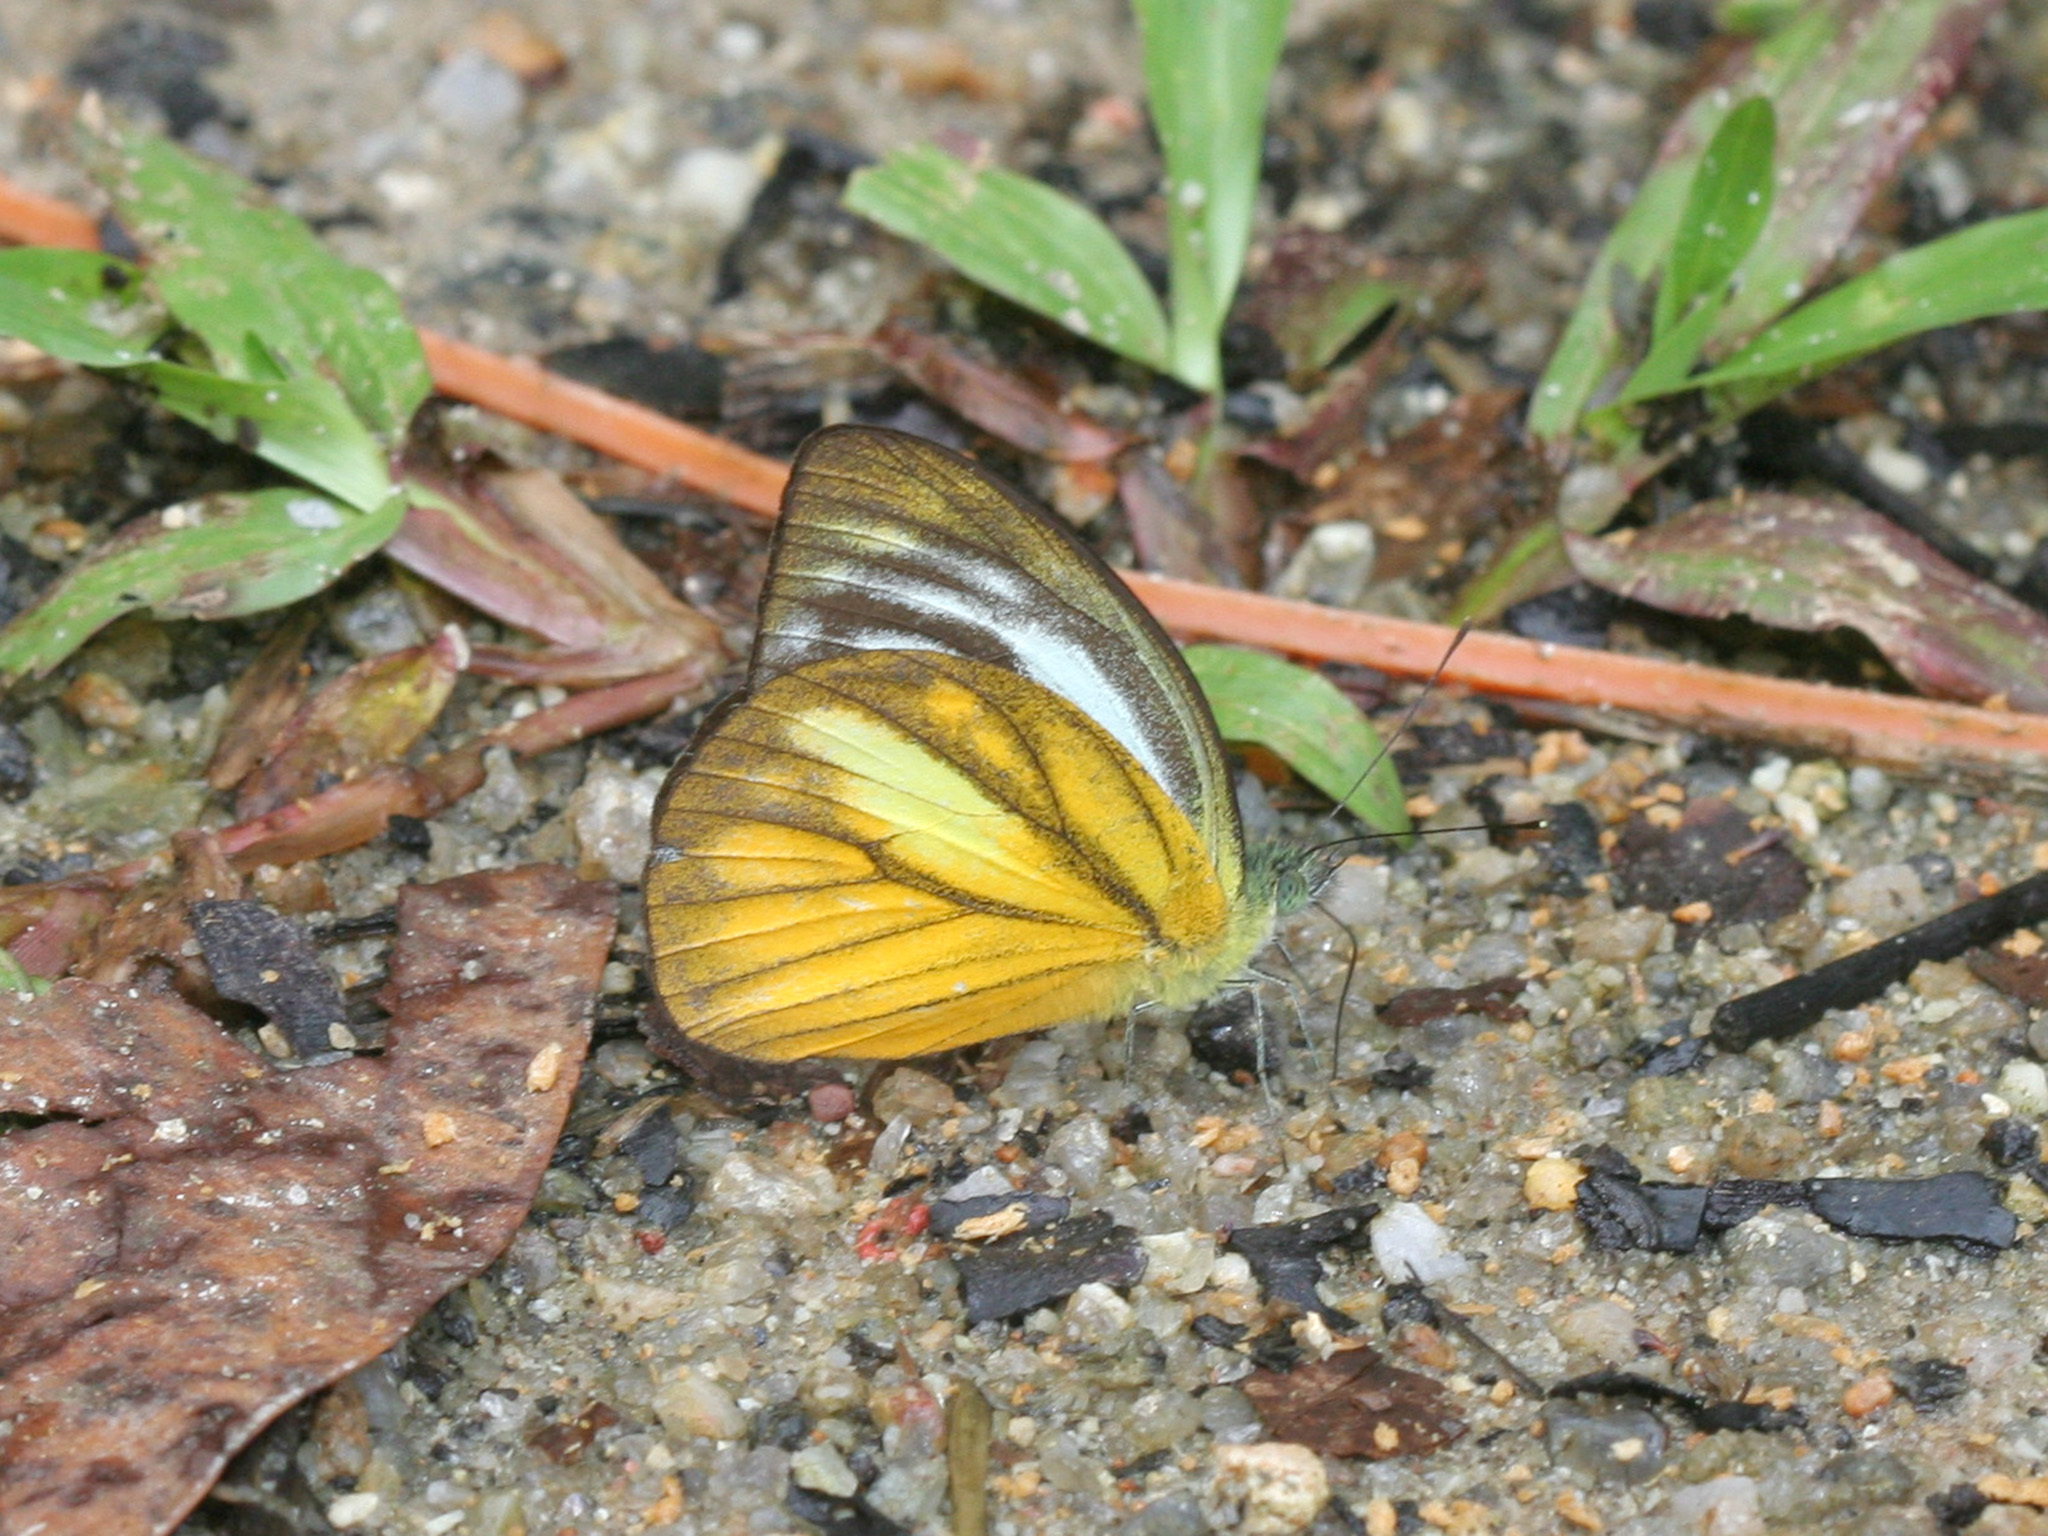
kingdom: Animalia
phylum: Arthropoda
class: Insecta
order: Lepidoptera
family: Pieridae
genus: Cepora
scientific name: Cepora nadina
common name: Lesser gull
